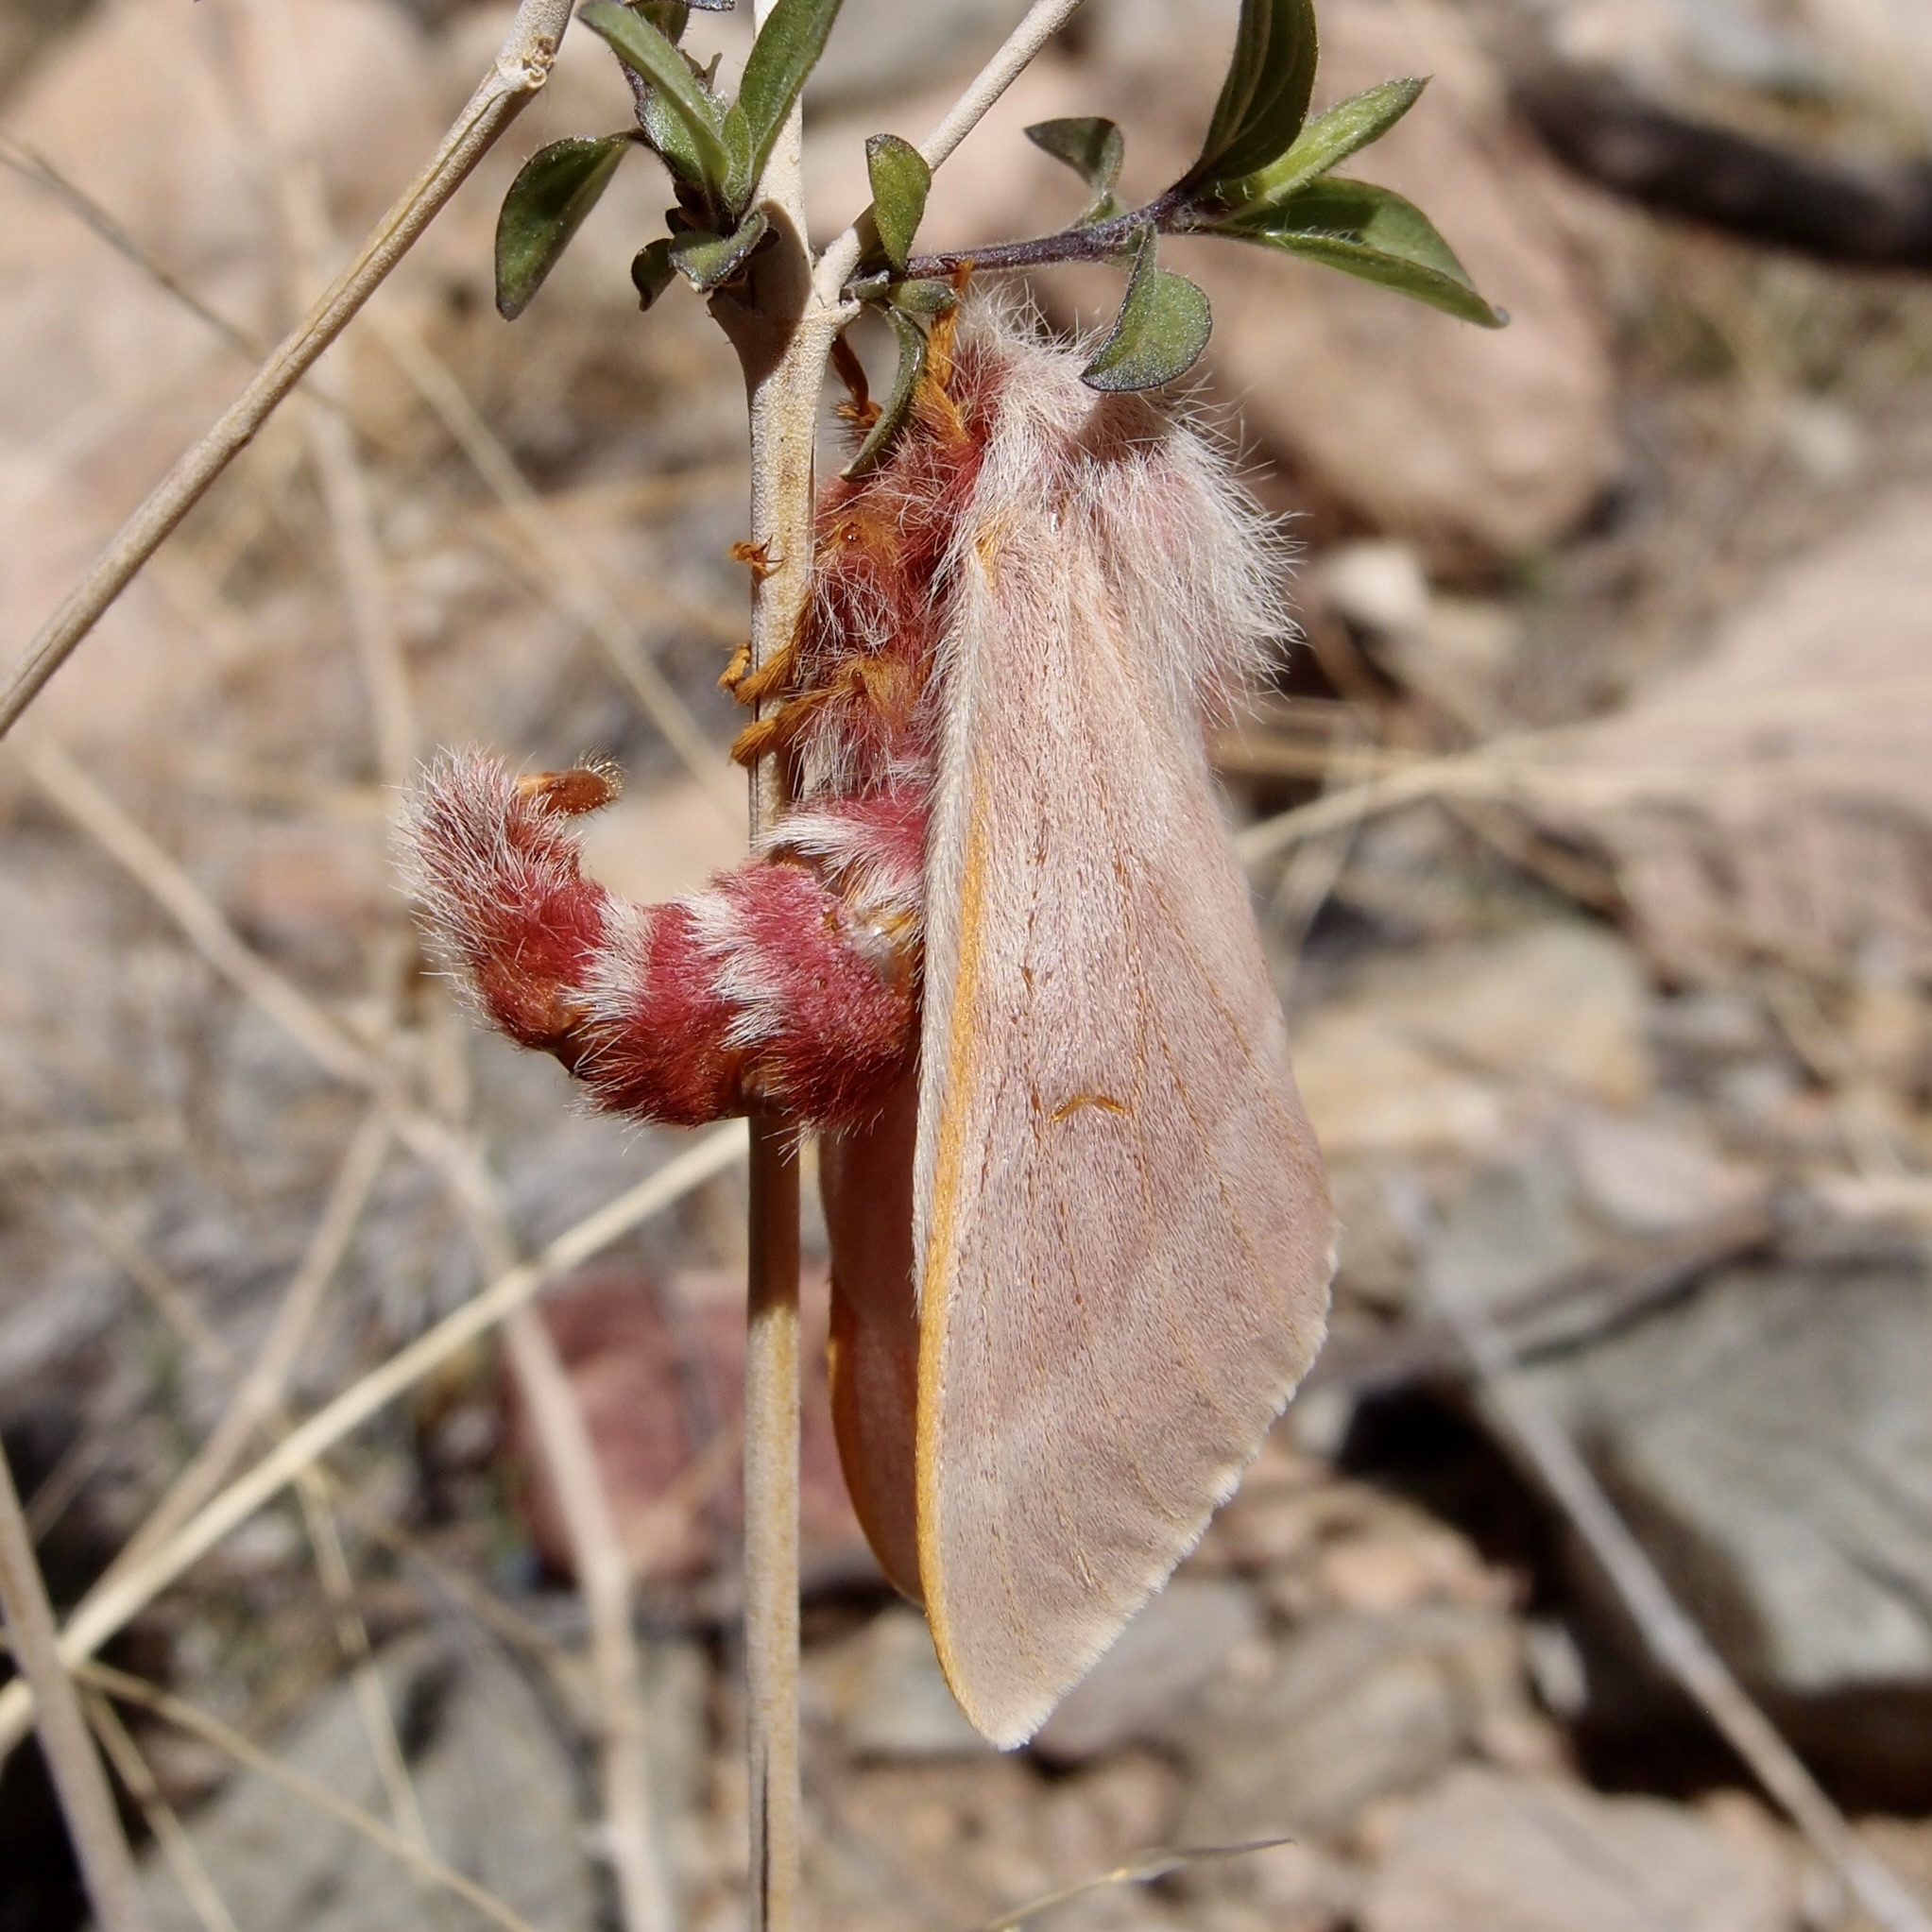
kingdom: Animalia
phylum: Arthropoda
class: Insecta
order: Lepidoptera
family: Saturniidae
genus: Hemileuca
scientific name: Hemileuca hualapai
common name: Hualapai buckmoth
